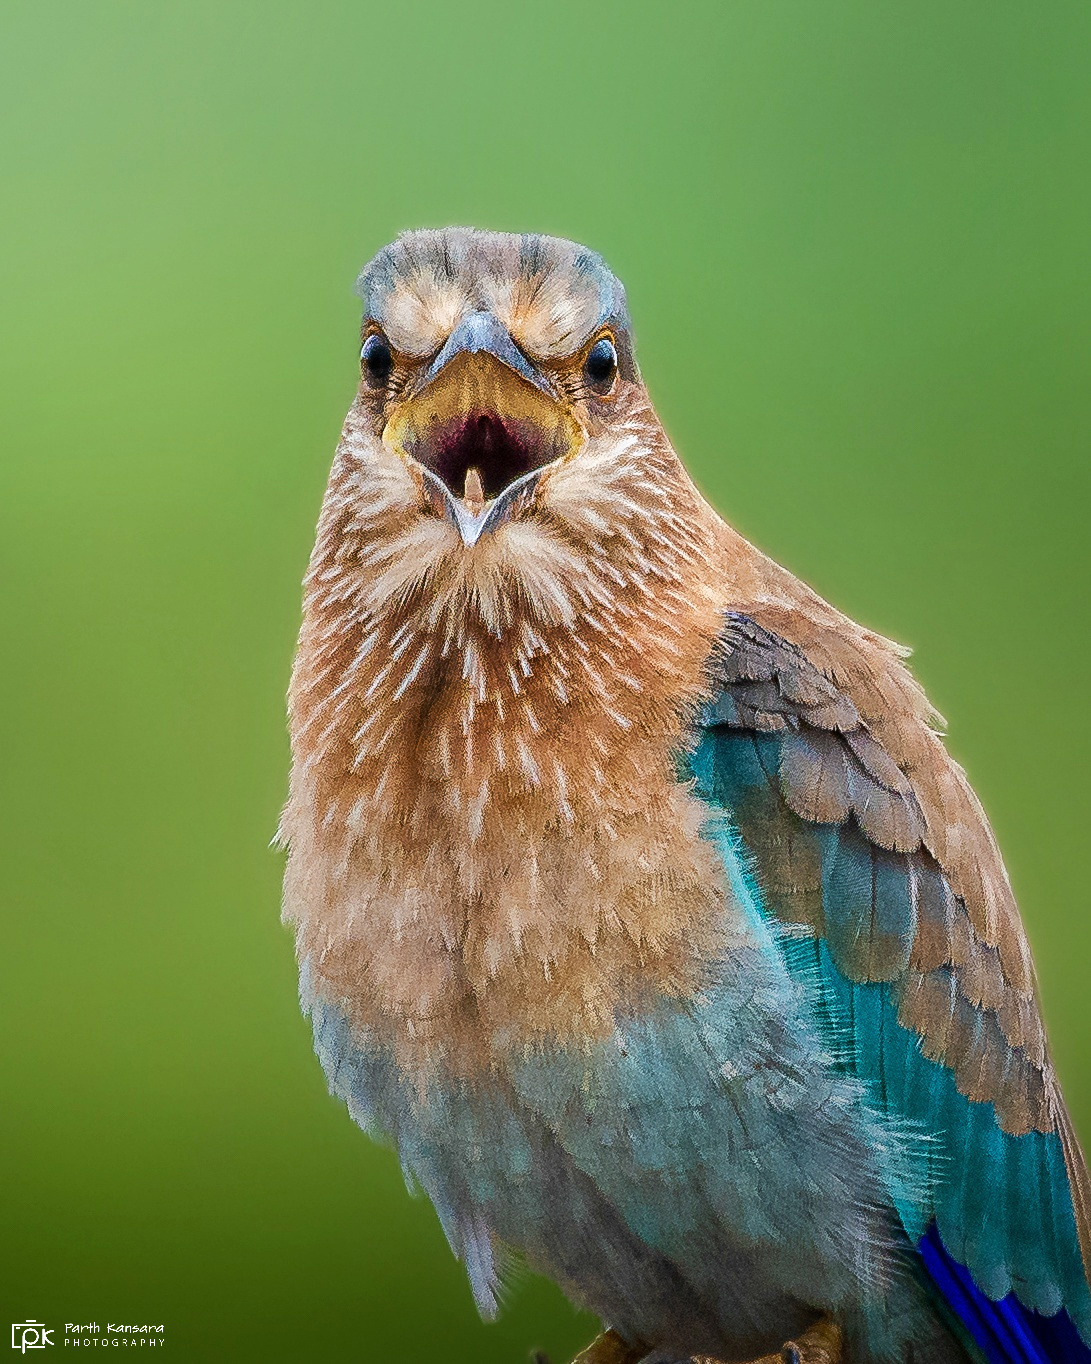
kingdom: Animalia
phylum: Chordata
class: Aves
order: Coraciiformes
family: Coraciidae
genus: Coracias
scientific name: Coracias benghalensis
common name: Indian roller
